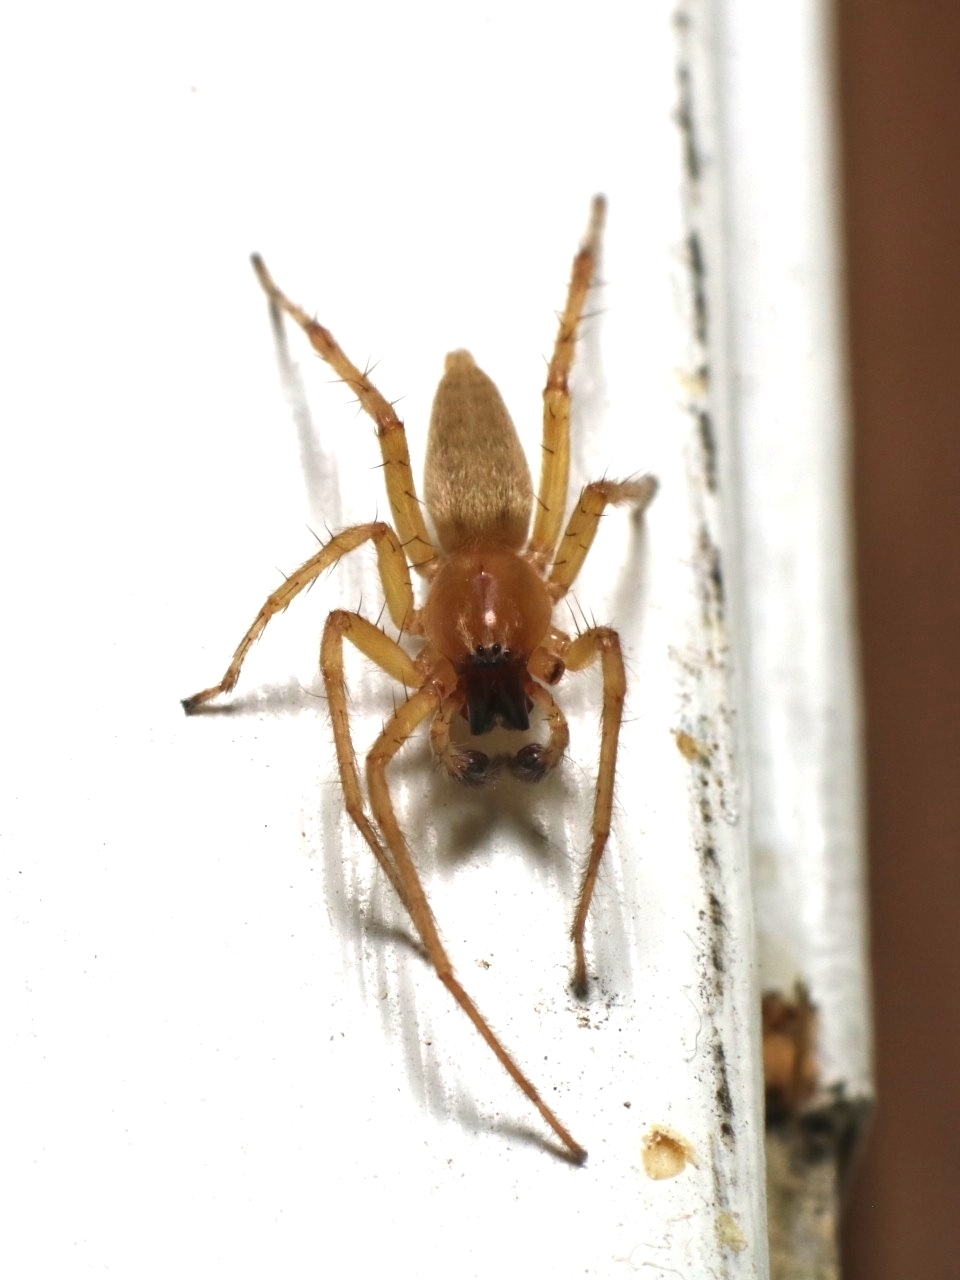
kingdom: Animalia
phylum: Arthropoda
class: Arachnida
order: Araneae
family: Anyphaenidae
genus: Hibana
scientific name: Hibana gracilis
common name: Garden ghost spider
